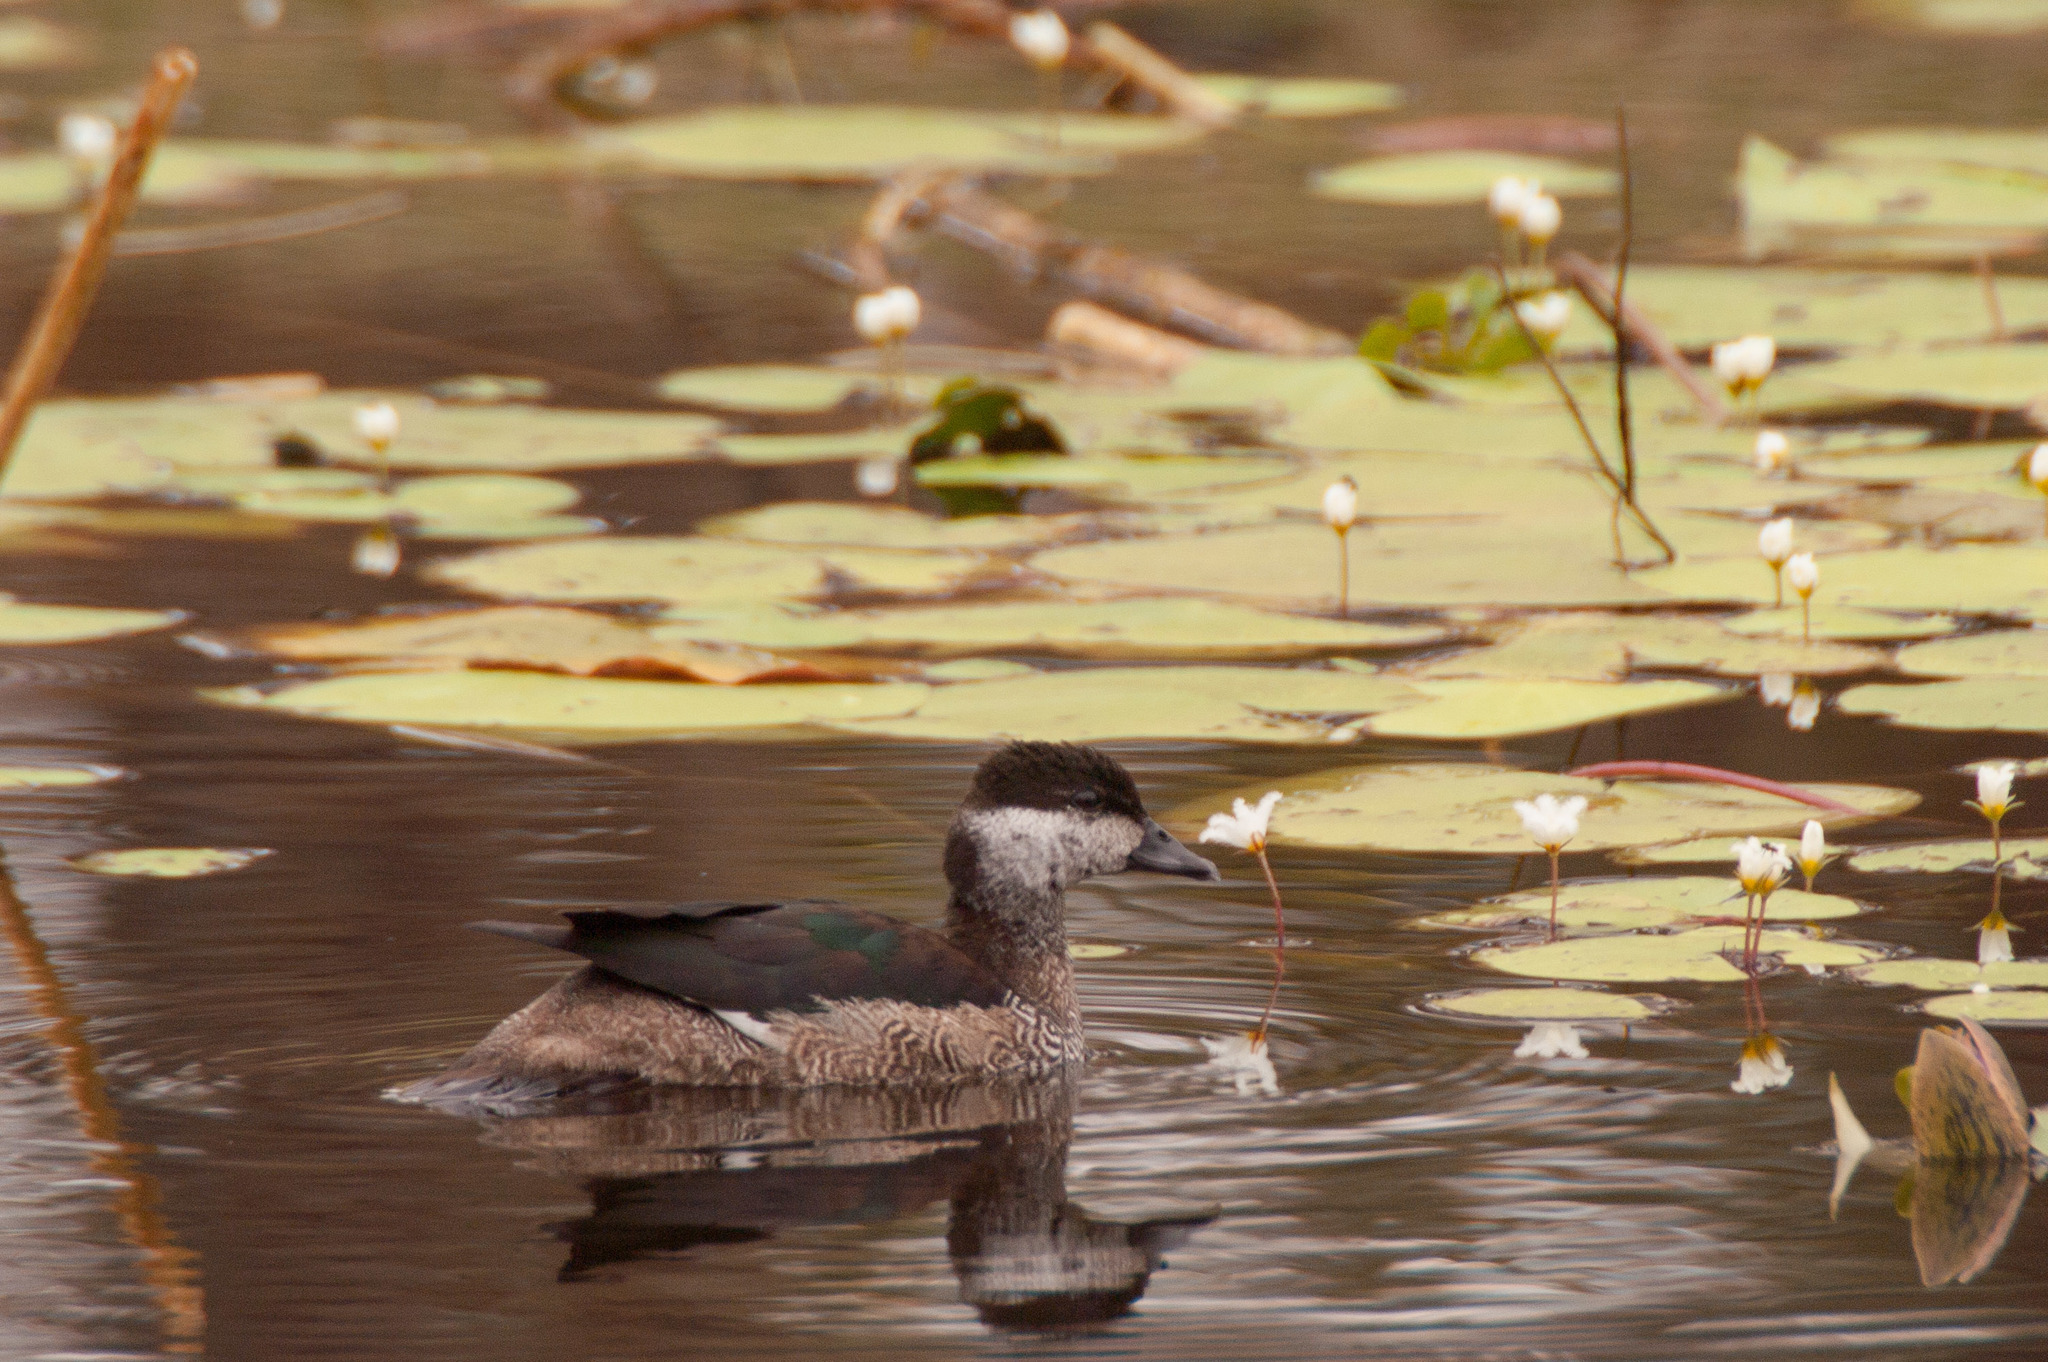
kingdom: Animalia
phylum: Chordata
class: Aves
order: Anseriformes
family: Anatidae
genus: Nettapus
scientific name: Nettapus pulchellus
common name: Green pygmy-goose
